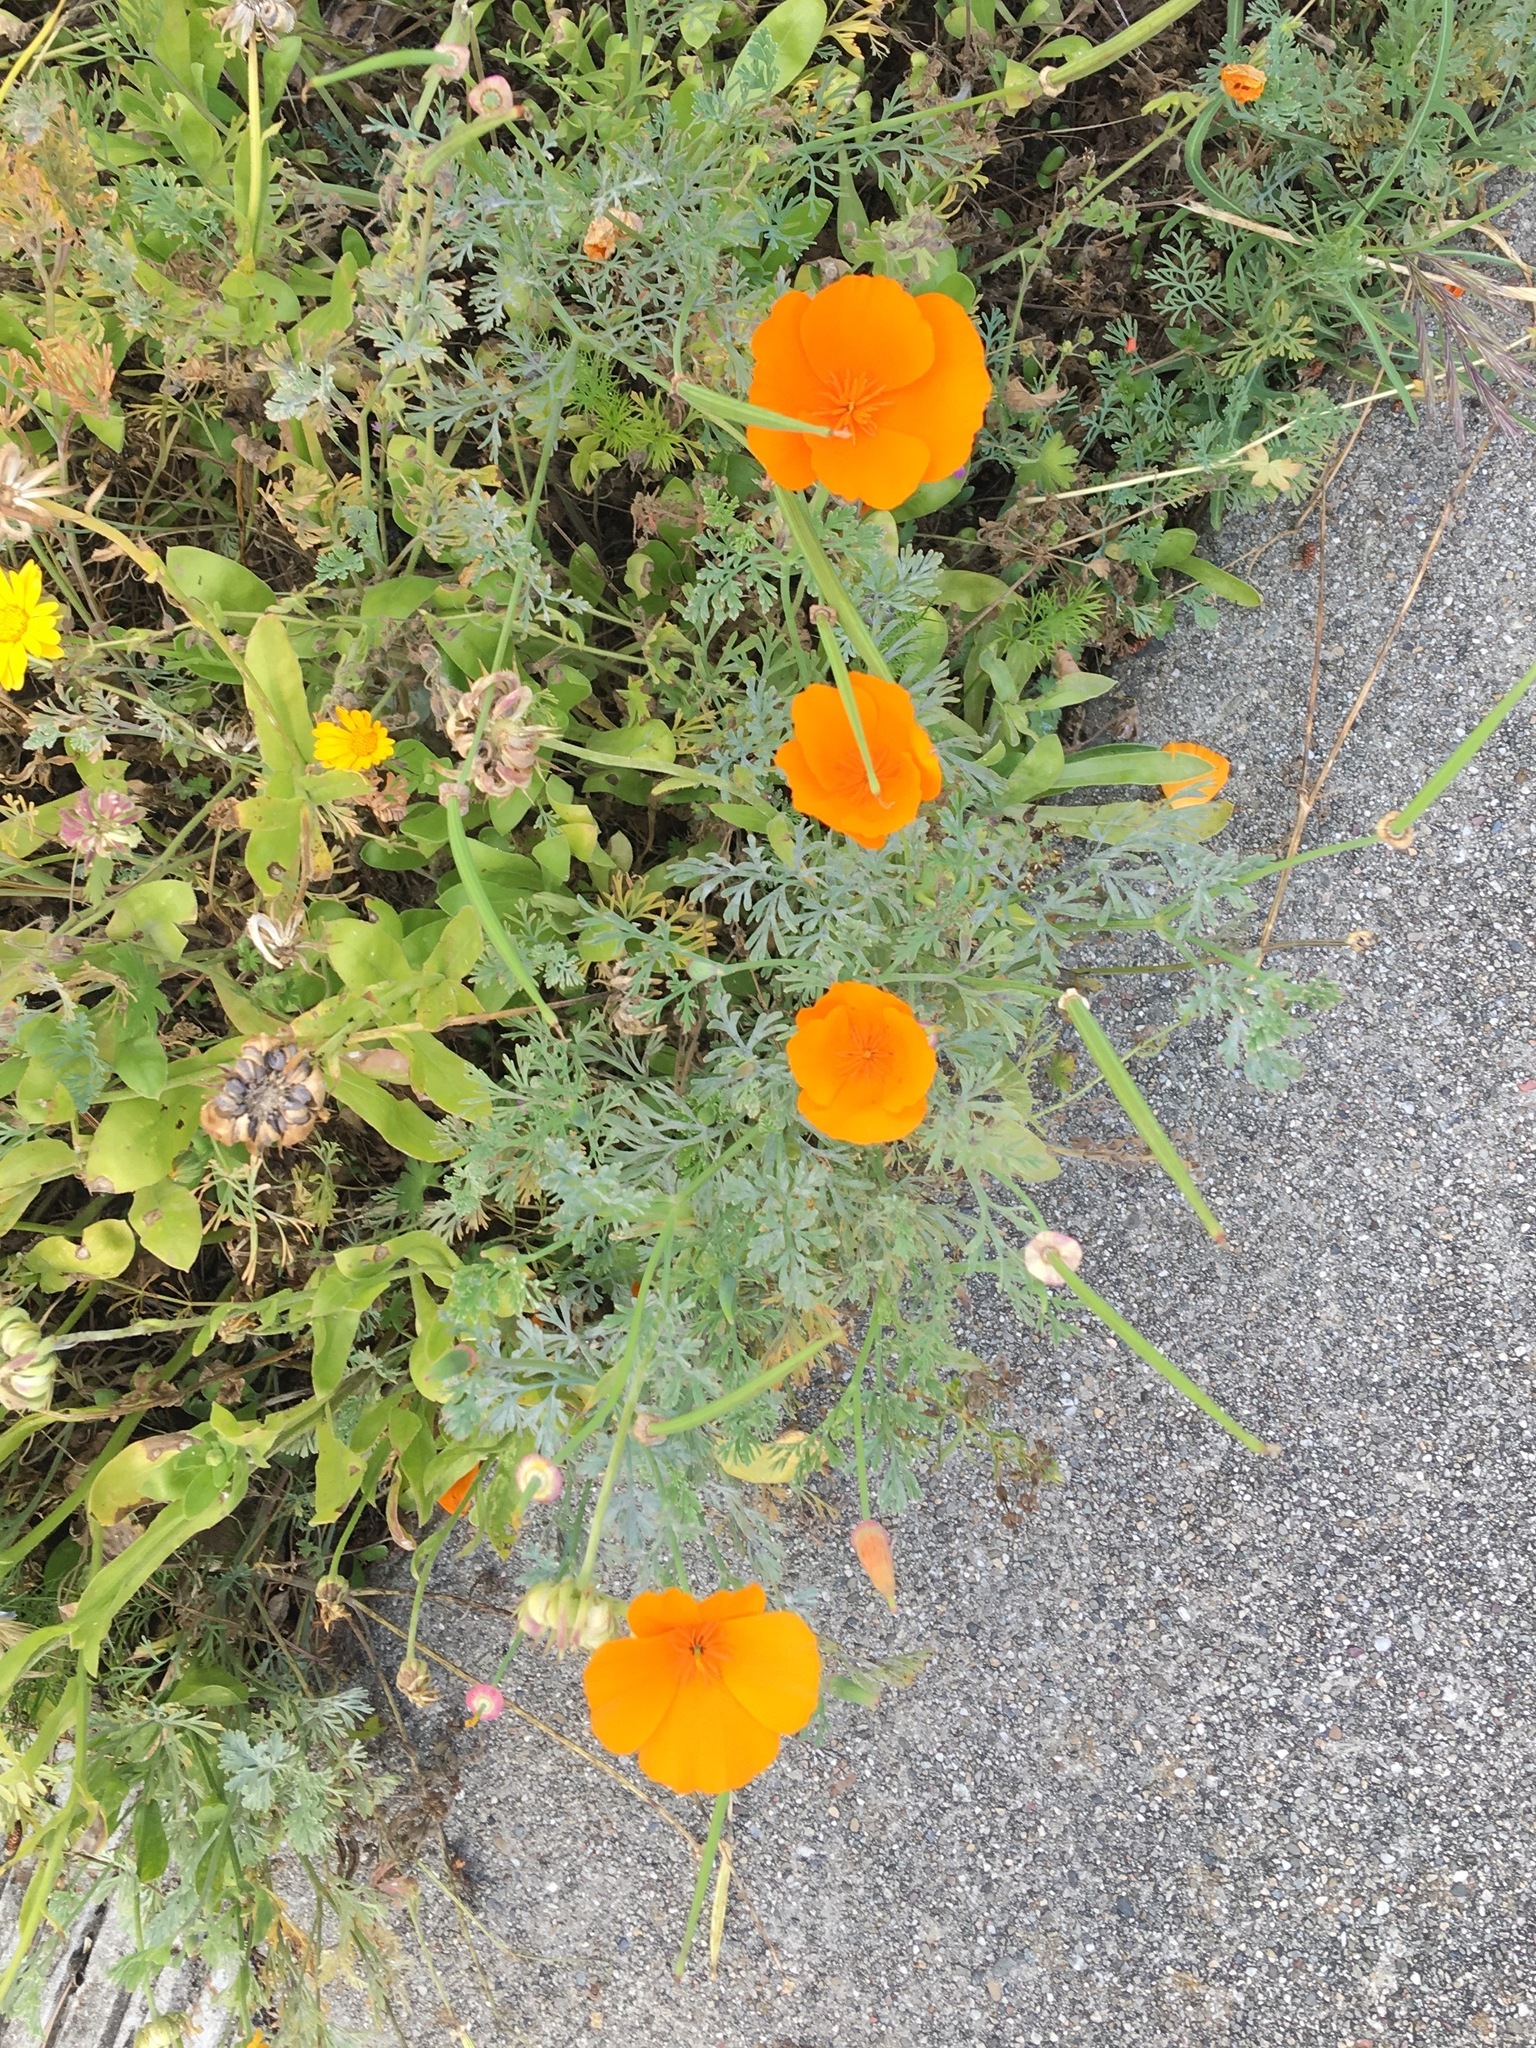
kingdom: Plantae
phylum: Tracheophyta
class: Magnoliopsida
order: Ranunculales
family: Papaveraceae
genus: Eschscholzia
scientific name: Eschscholzia californica
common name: California poppy
